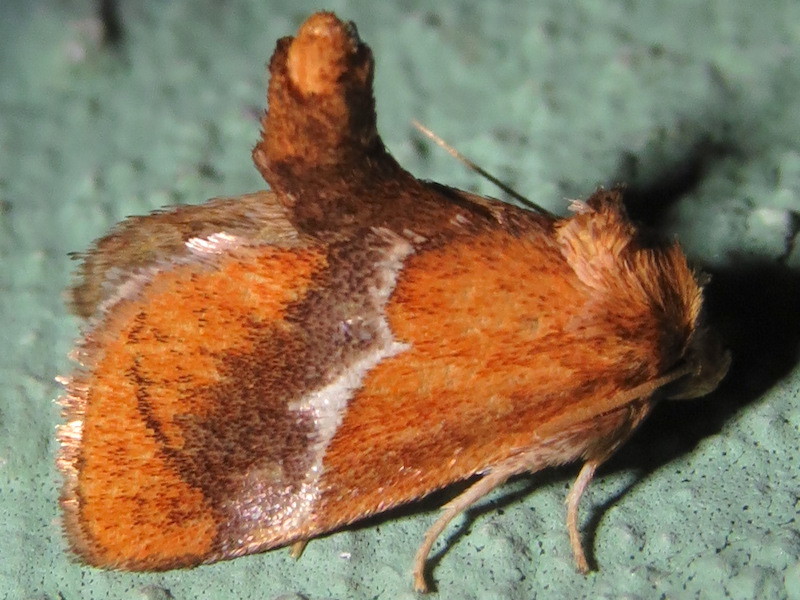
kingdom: Animalia
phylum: Arthropoda
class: Insecta
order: Lepidoptera
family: Limacodidae
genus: Lithacodes
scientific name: Lithacodes fasciola
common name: Yellow-shouldered slug moth
